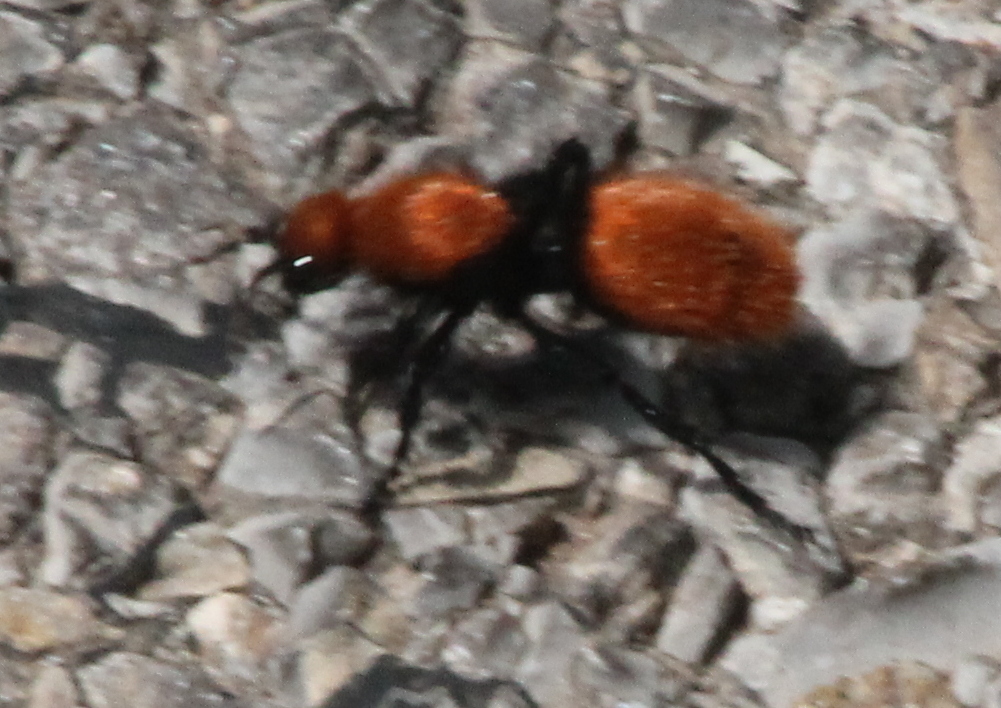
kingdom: Animalia
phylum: Arthropoda
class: Insecta
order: Hymenoptera
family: Mutillidae
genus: Dasymutilla
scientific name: Dasymutilla
